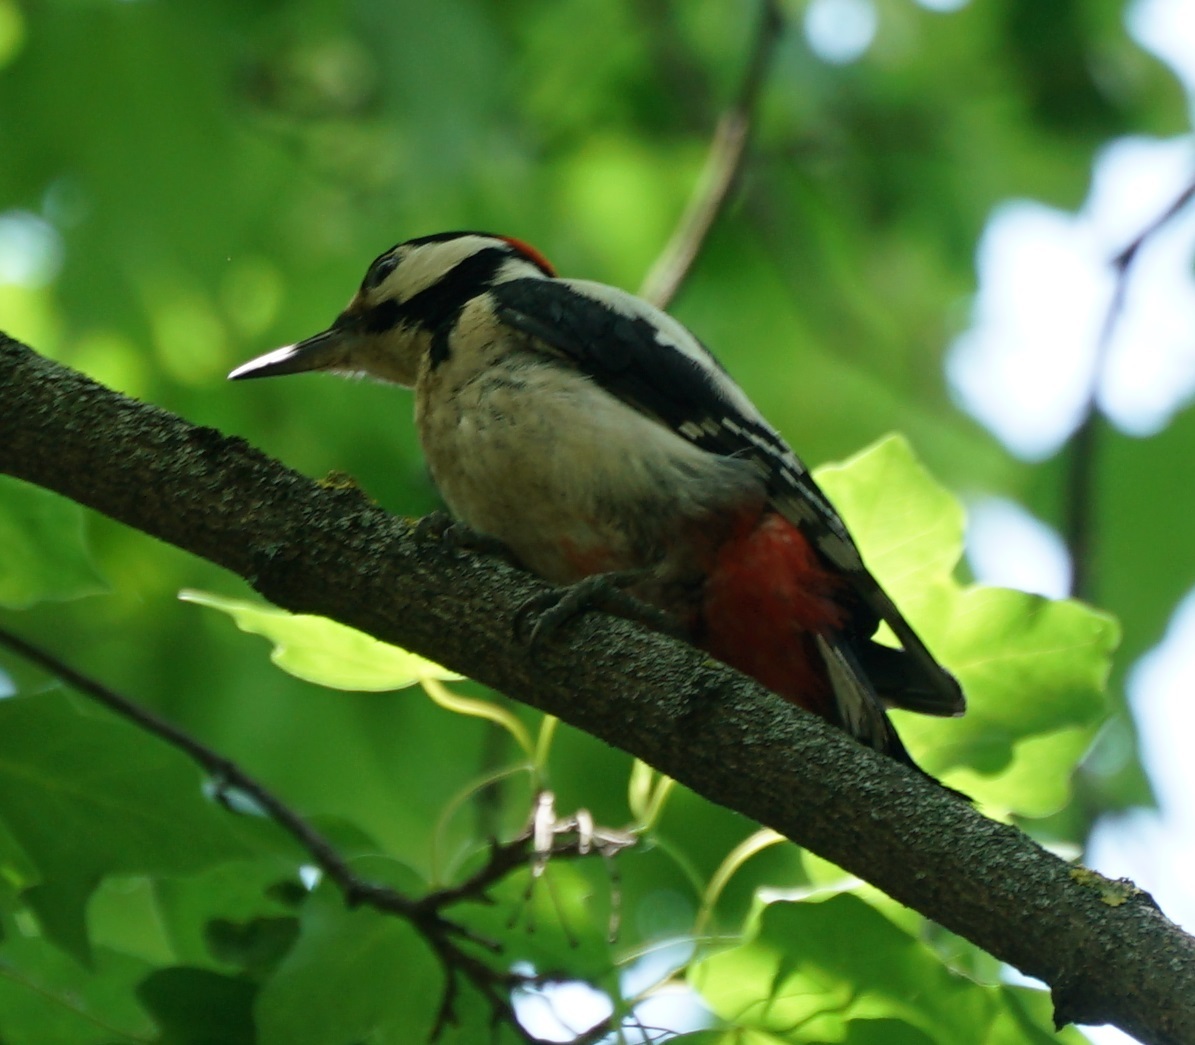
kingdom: Animalia
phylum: Chordata
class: Aves
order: Piciformes
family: Picidae
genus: Dendrocopos
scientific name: Dendrocopos major
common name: Great spotted woodpecker
